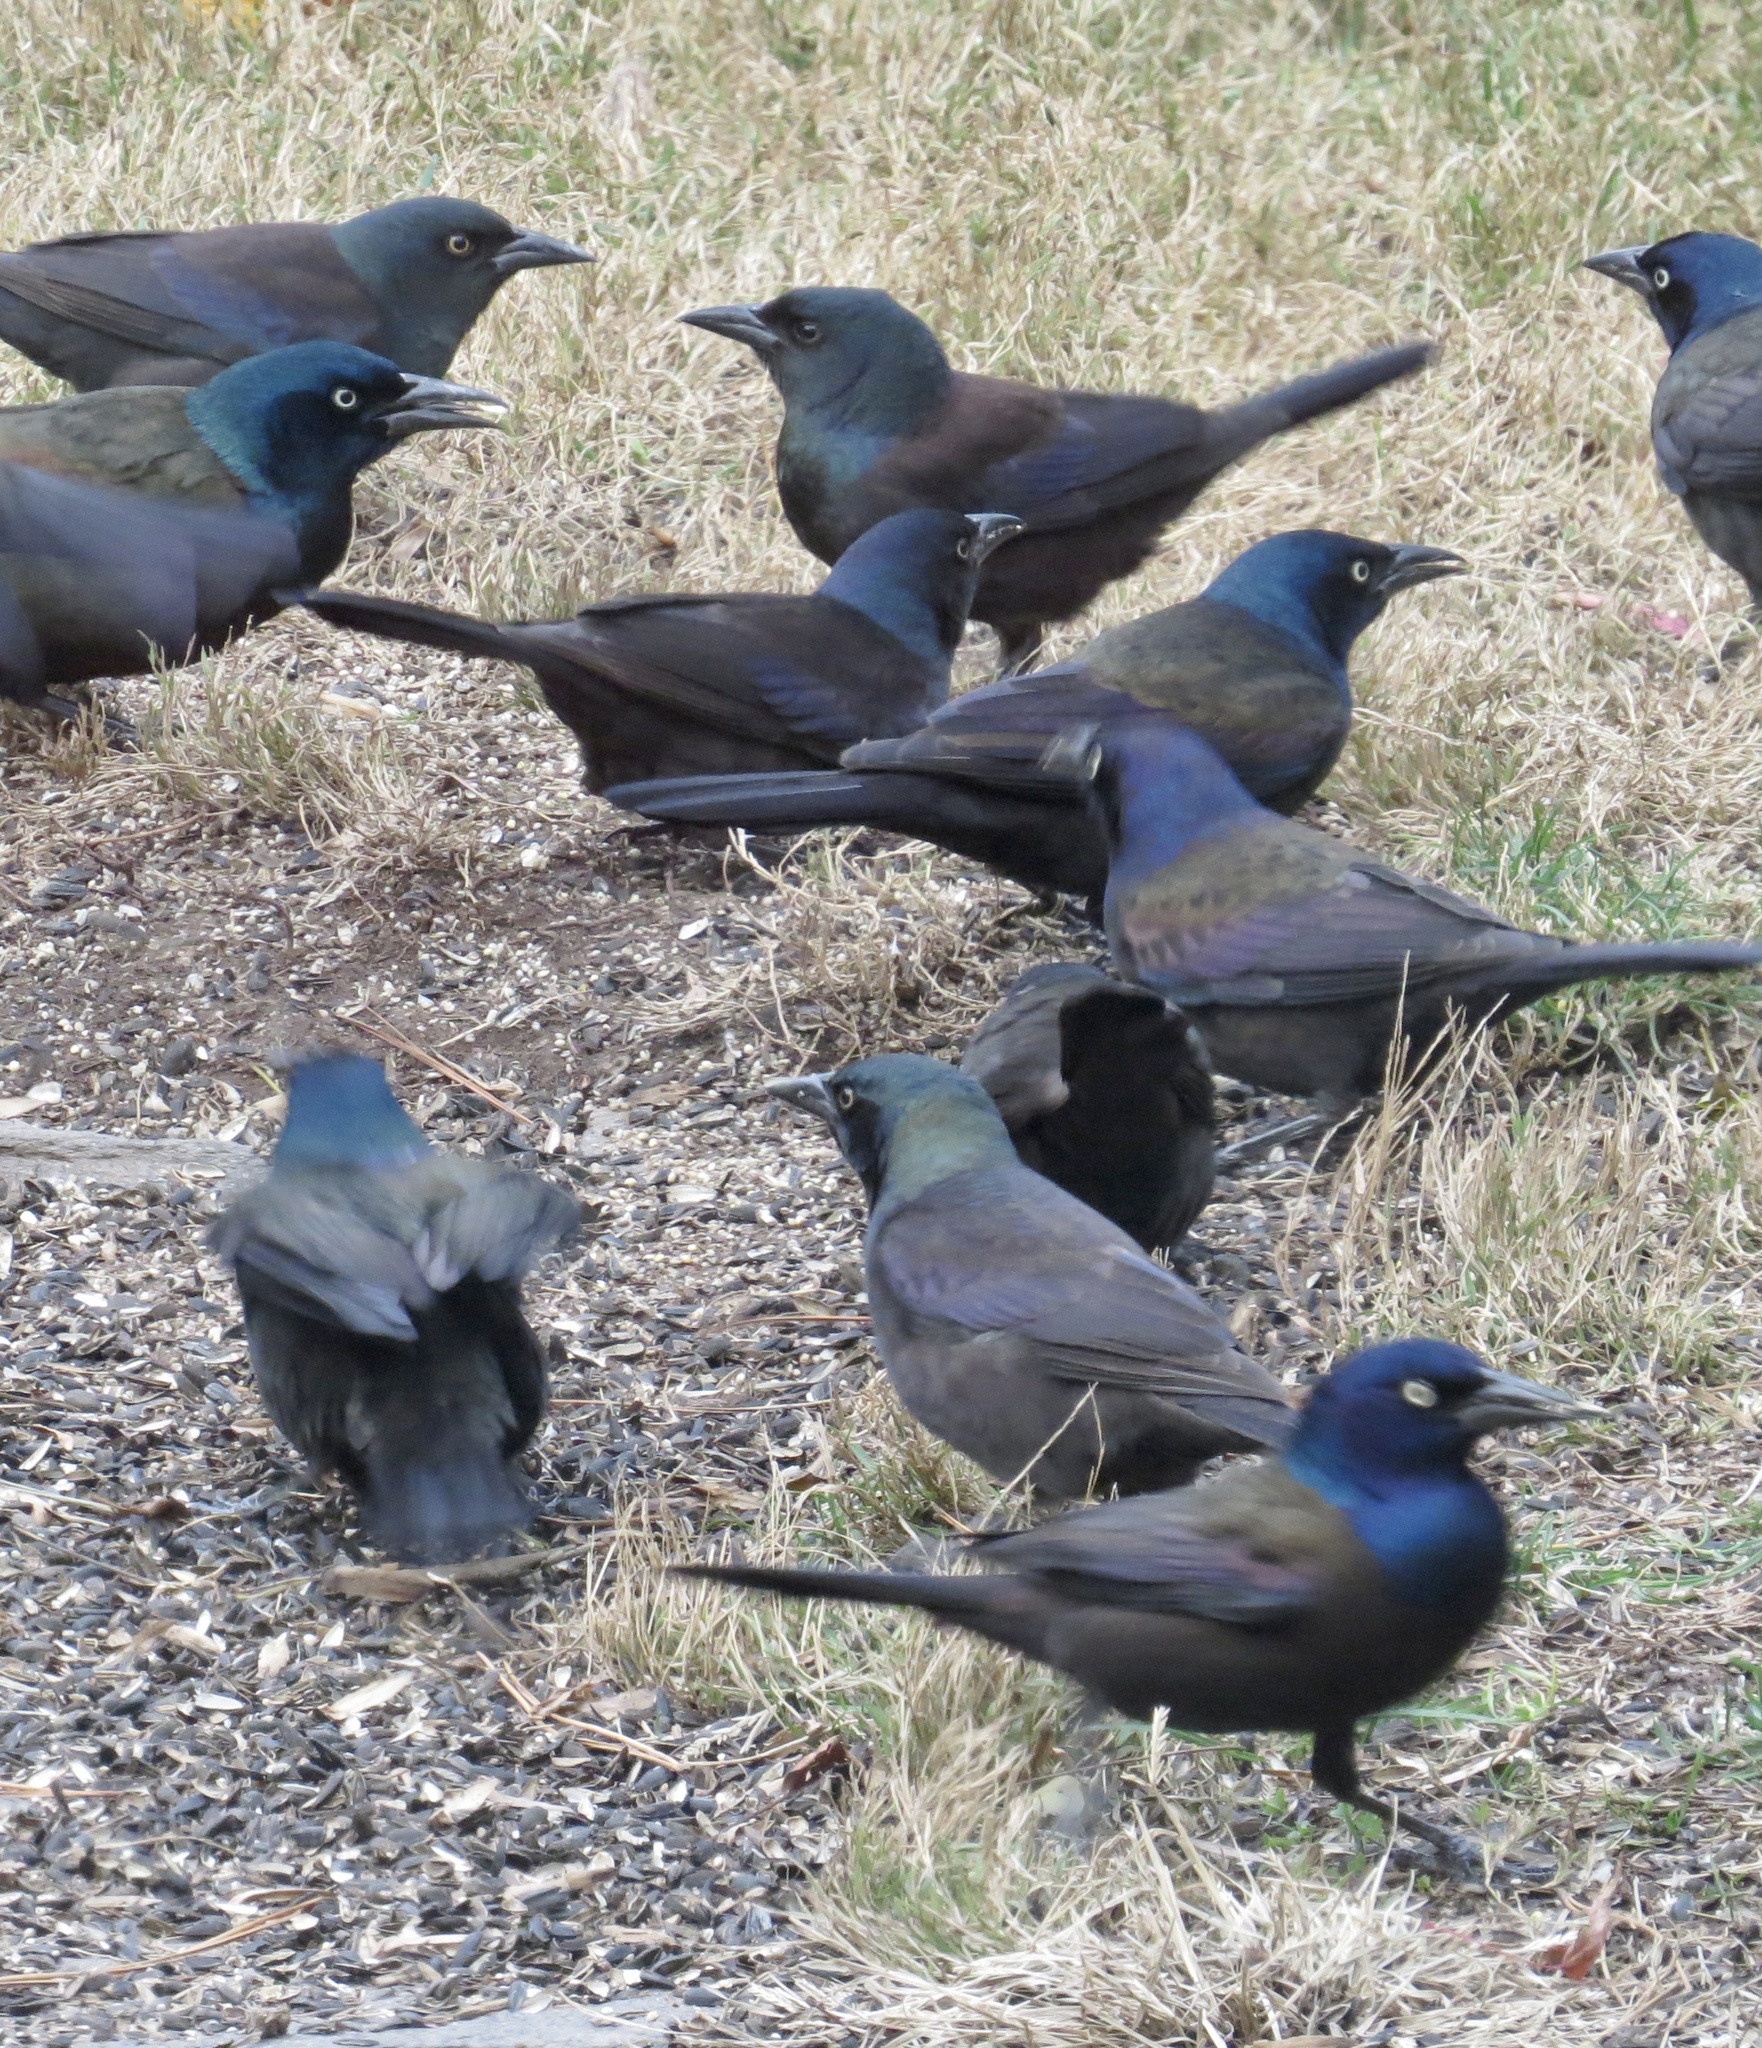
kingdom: Animalia
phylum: Chordata
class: Aves
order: Passeriformes
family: Icteridae
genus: Quiscalus
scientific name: Quiscalus quiscula
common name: Common grackle
